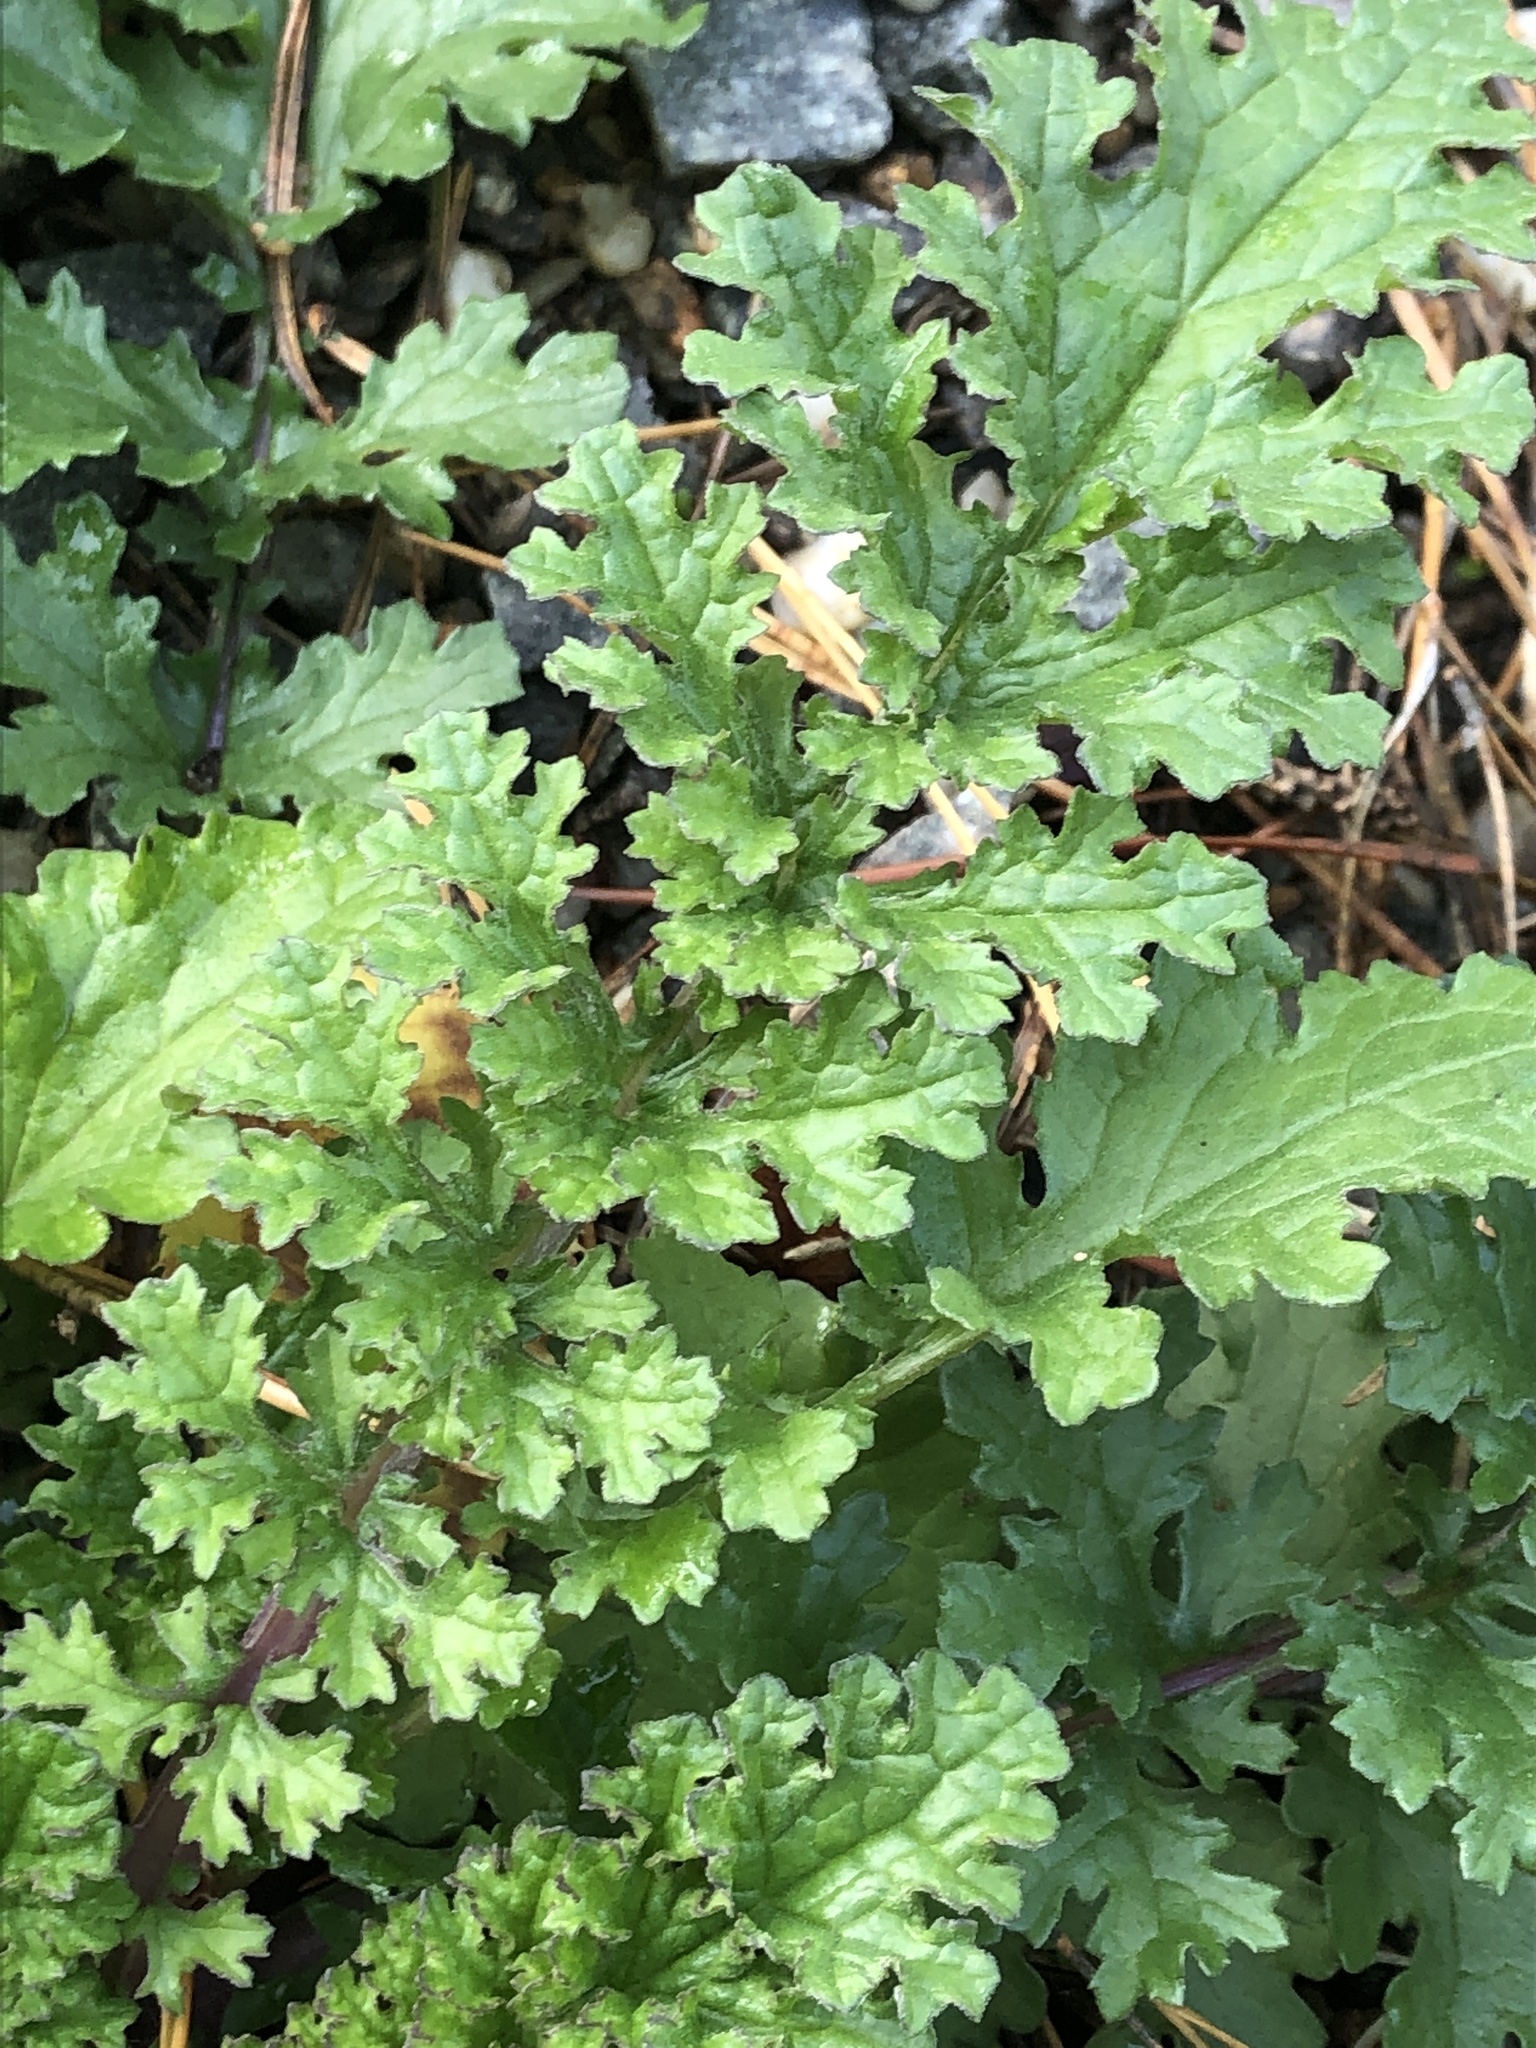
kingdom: Plantae
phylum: Tracheophyta
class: Magnoliopsida
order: Asterales
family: Asteraceae
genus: Jacobaea
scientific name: Jacobaea vulgaris
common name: Stinking willie
